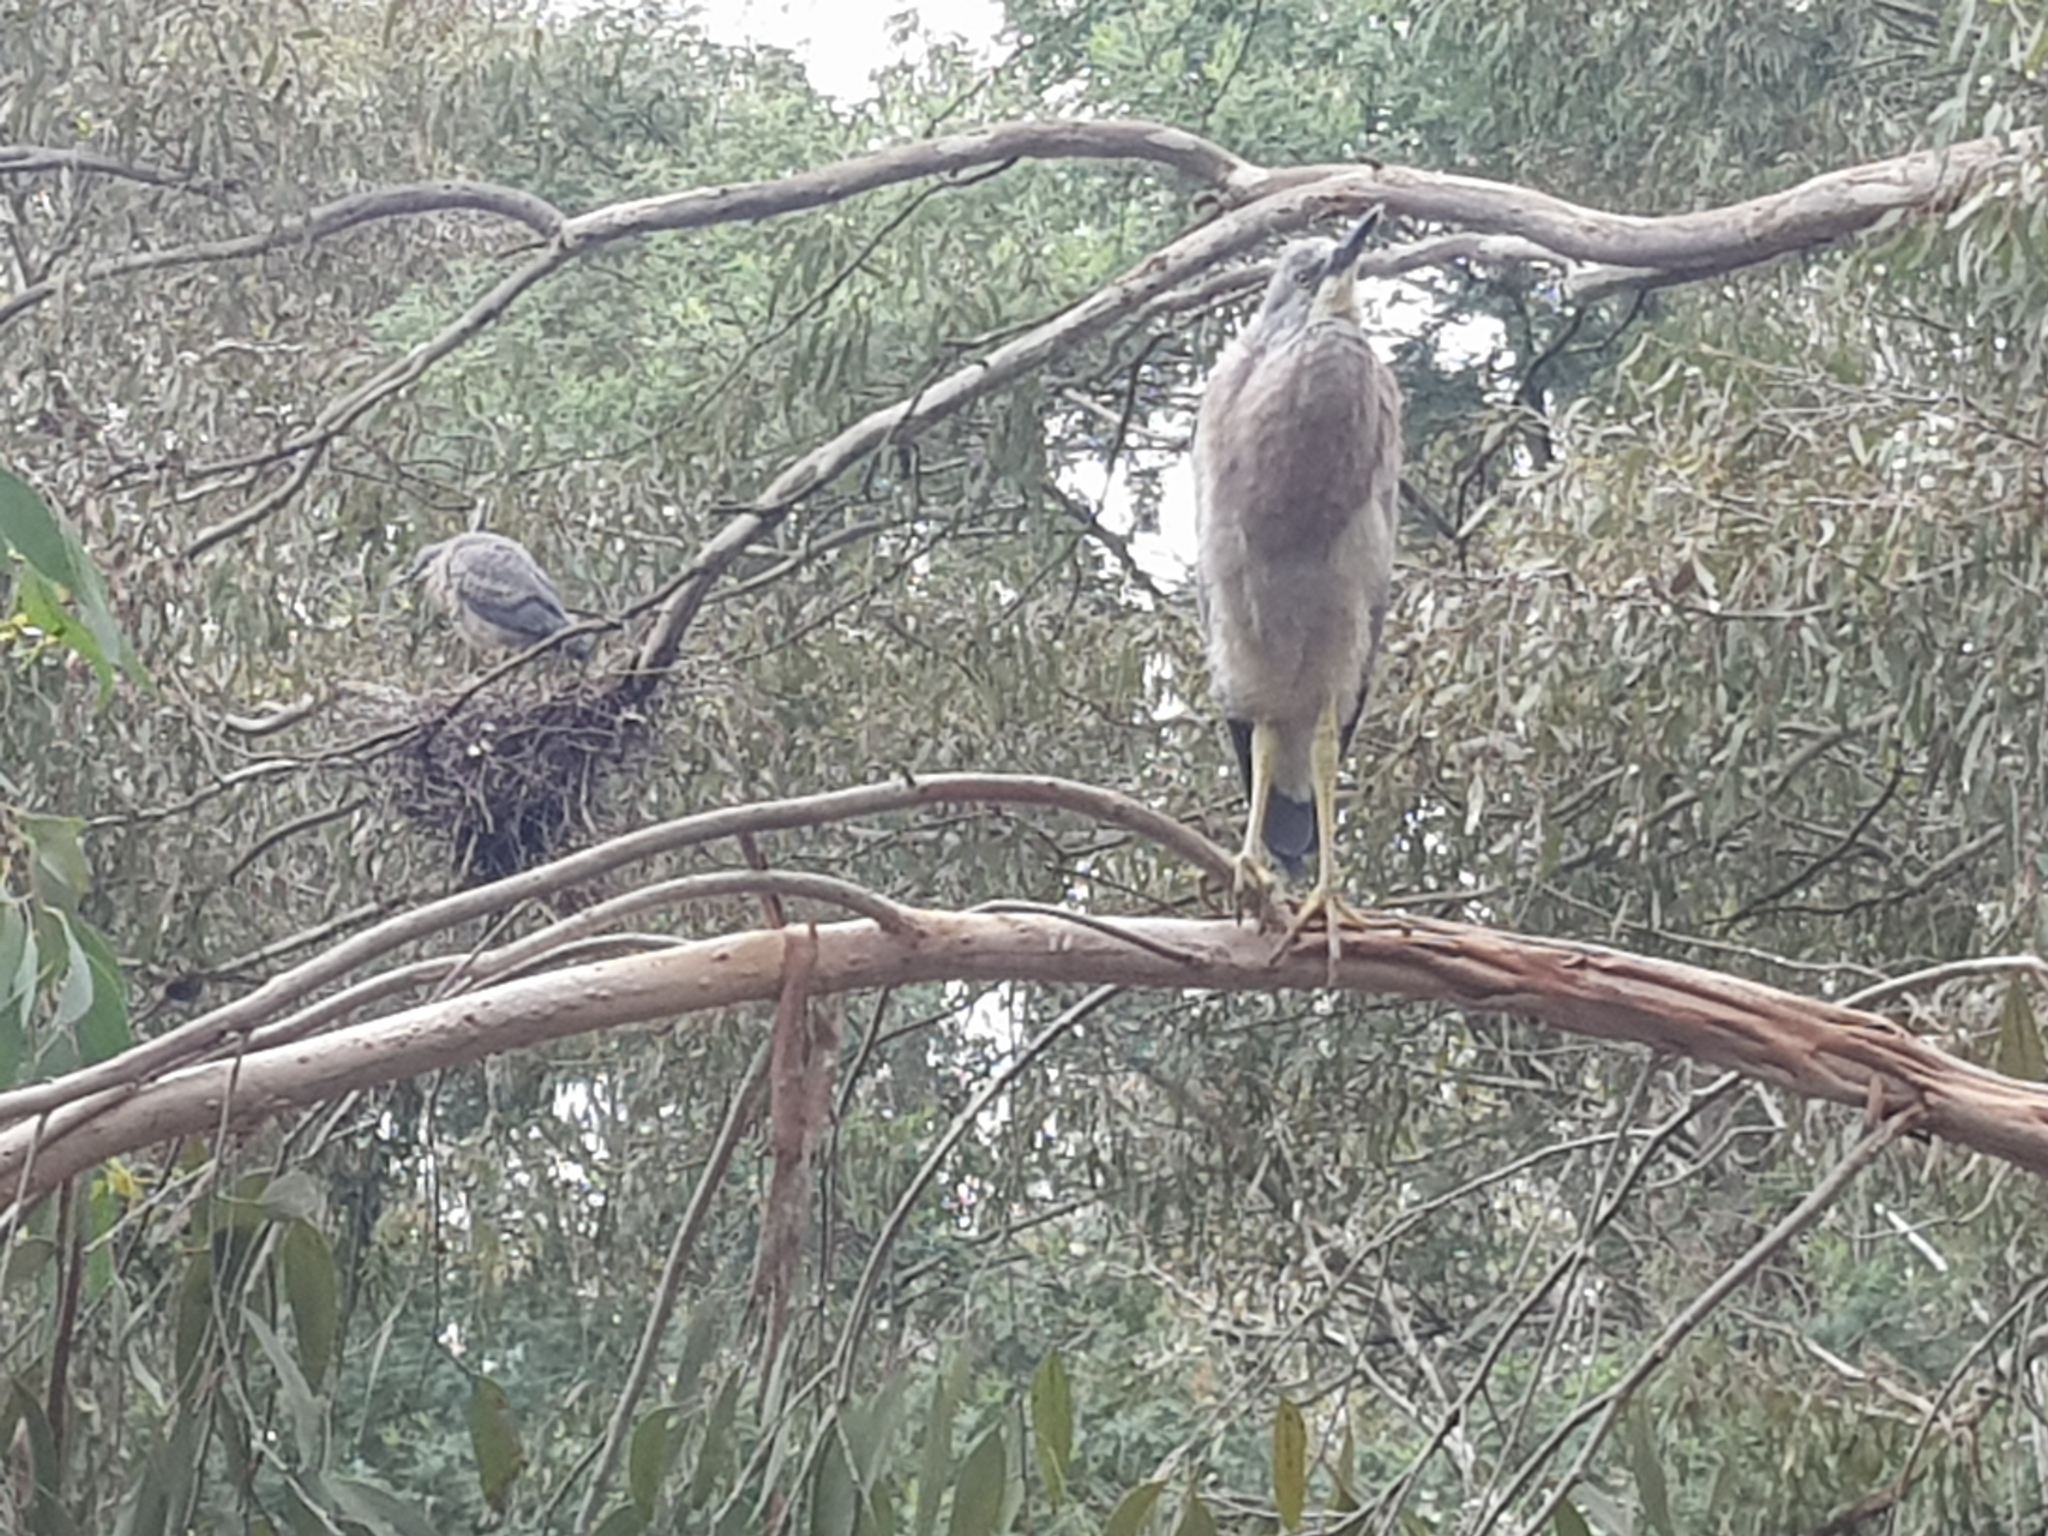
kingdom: Animalia
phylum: Chordata
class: Aves
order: Pelecaniformes
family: Ardeidae
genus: Egretta
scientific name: Egretta novaehollandiae
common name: White-faced heron
